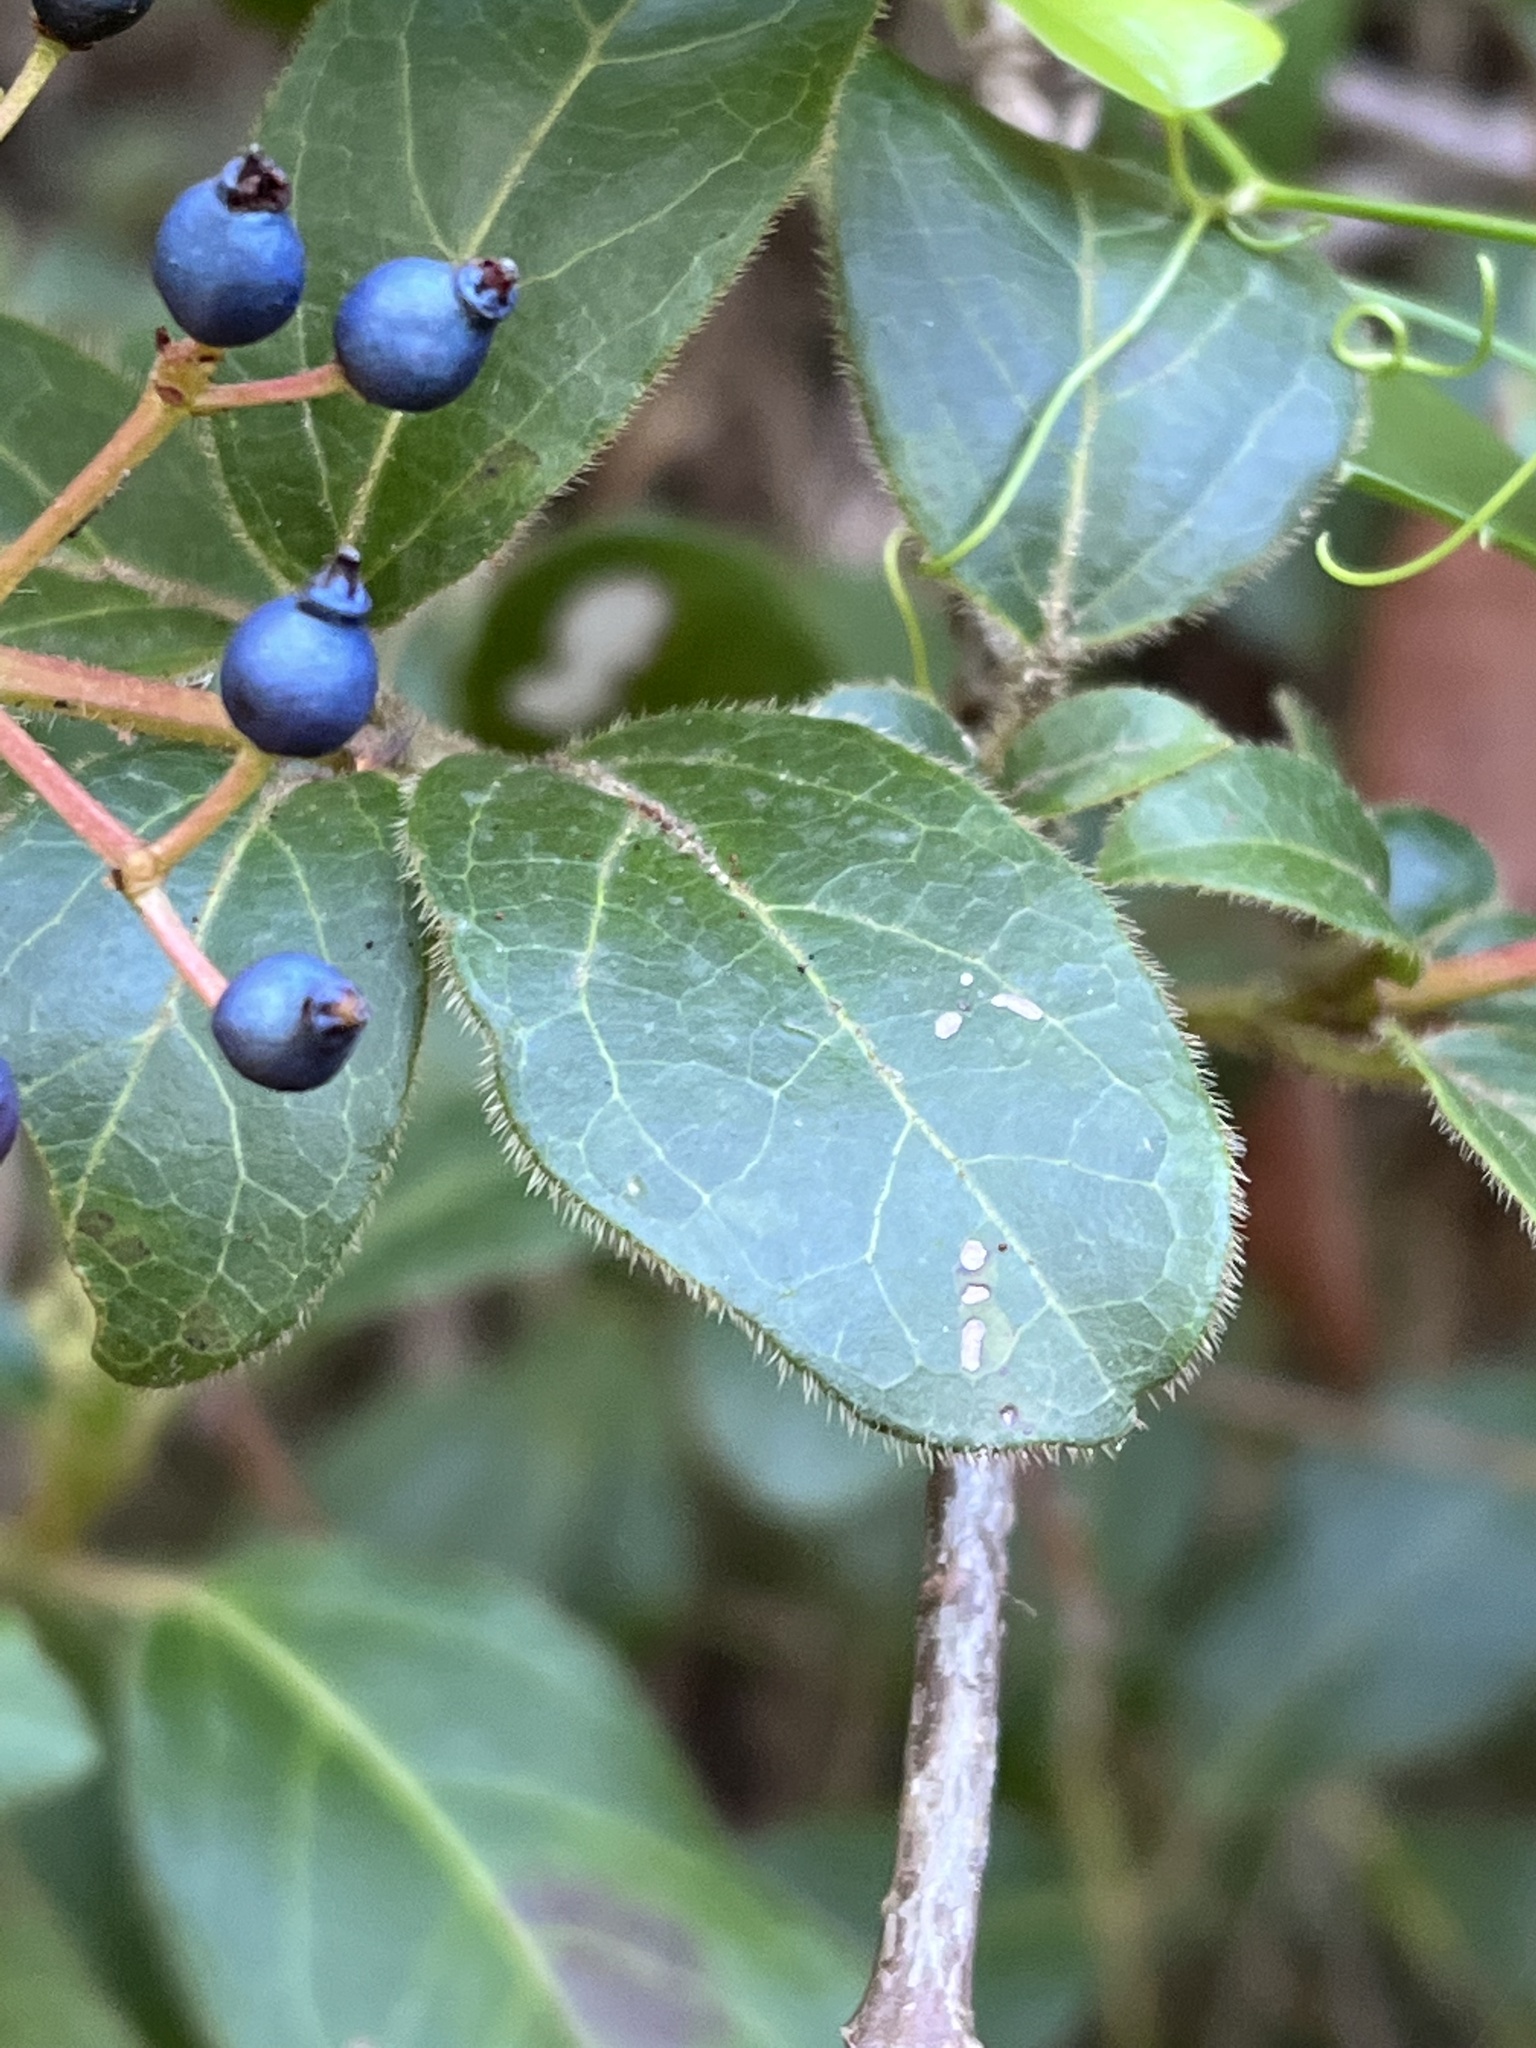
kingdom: Plantae
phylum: Tracheophyta
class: Magnoliopsida
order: Dipsacales
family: Viburnaceae
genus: Viburnum
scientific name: Viburnum tinus
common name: Laurustinus
